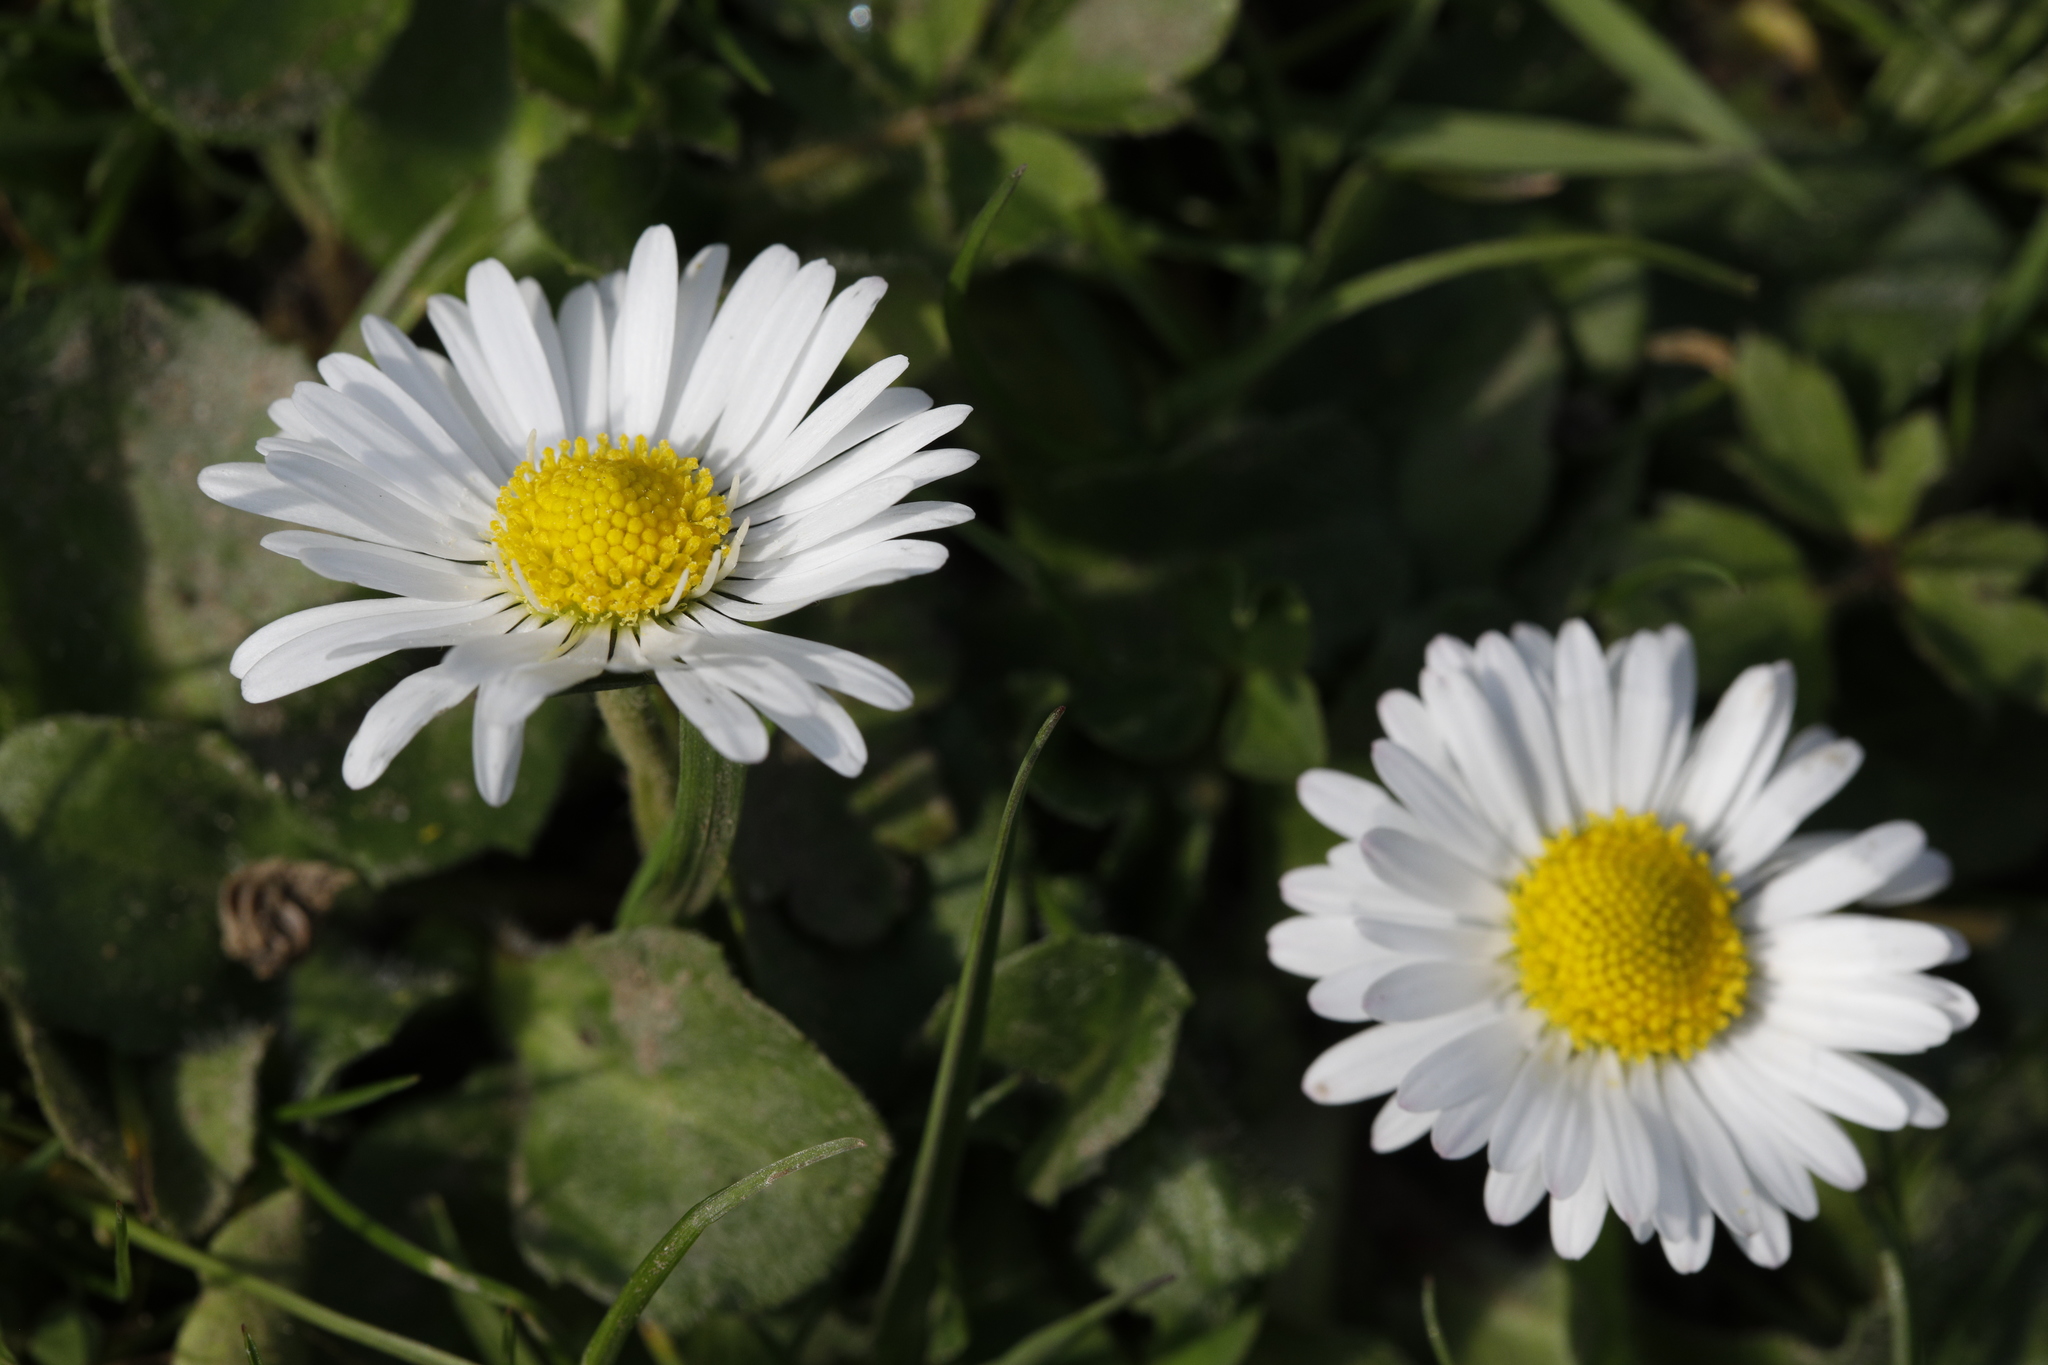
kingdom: Plantae
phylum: Tracheophyta
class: Magnoliopsida
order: Asterales
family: Asteraceae
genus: Bellis
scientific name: Bellis perennis
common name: Lawndaisy
